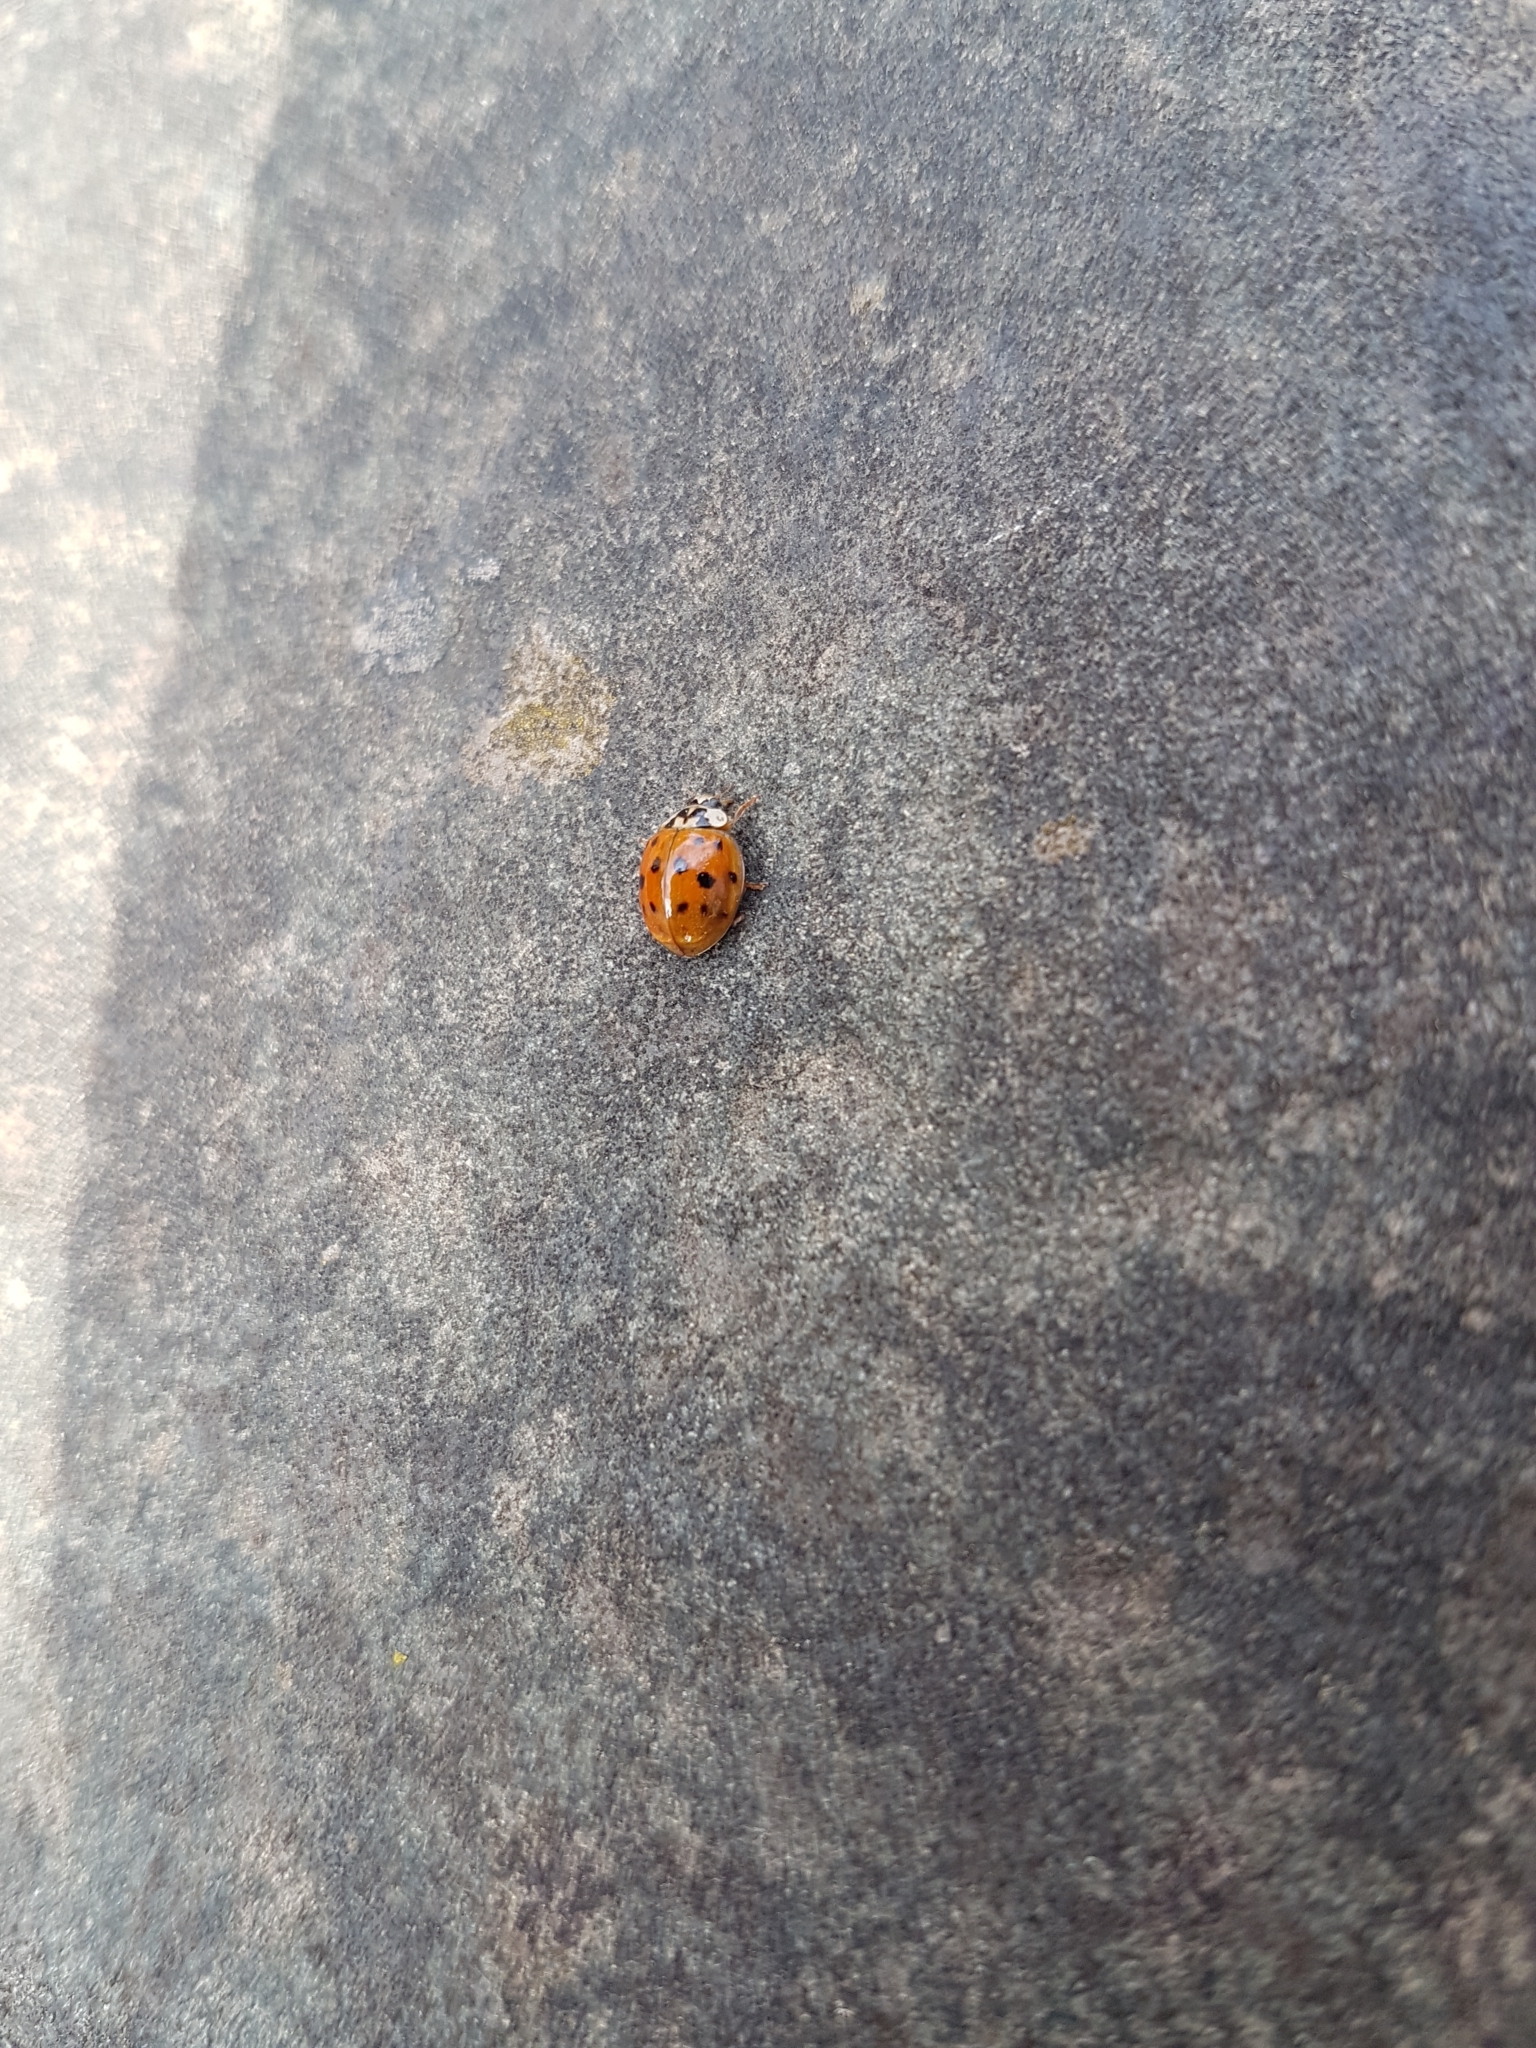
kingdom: Animalia
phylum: Arthropoda
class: Insecta
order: Coleoptera
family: Coccinellidae
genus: Harmonia
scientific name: Harmonia axyridis
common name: Harlequin ladybird
